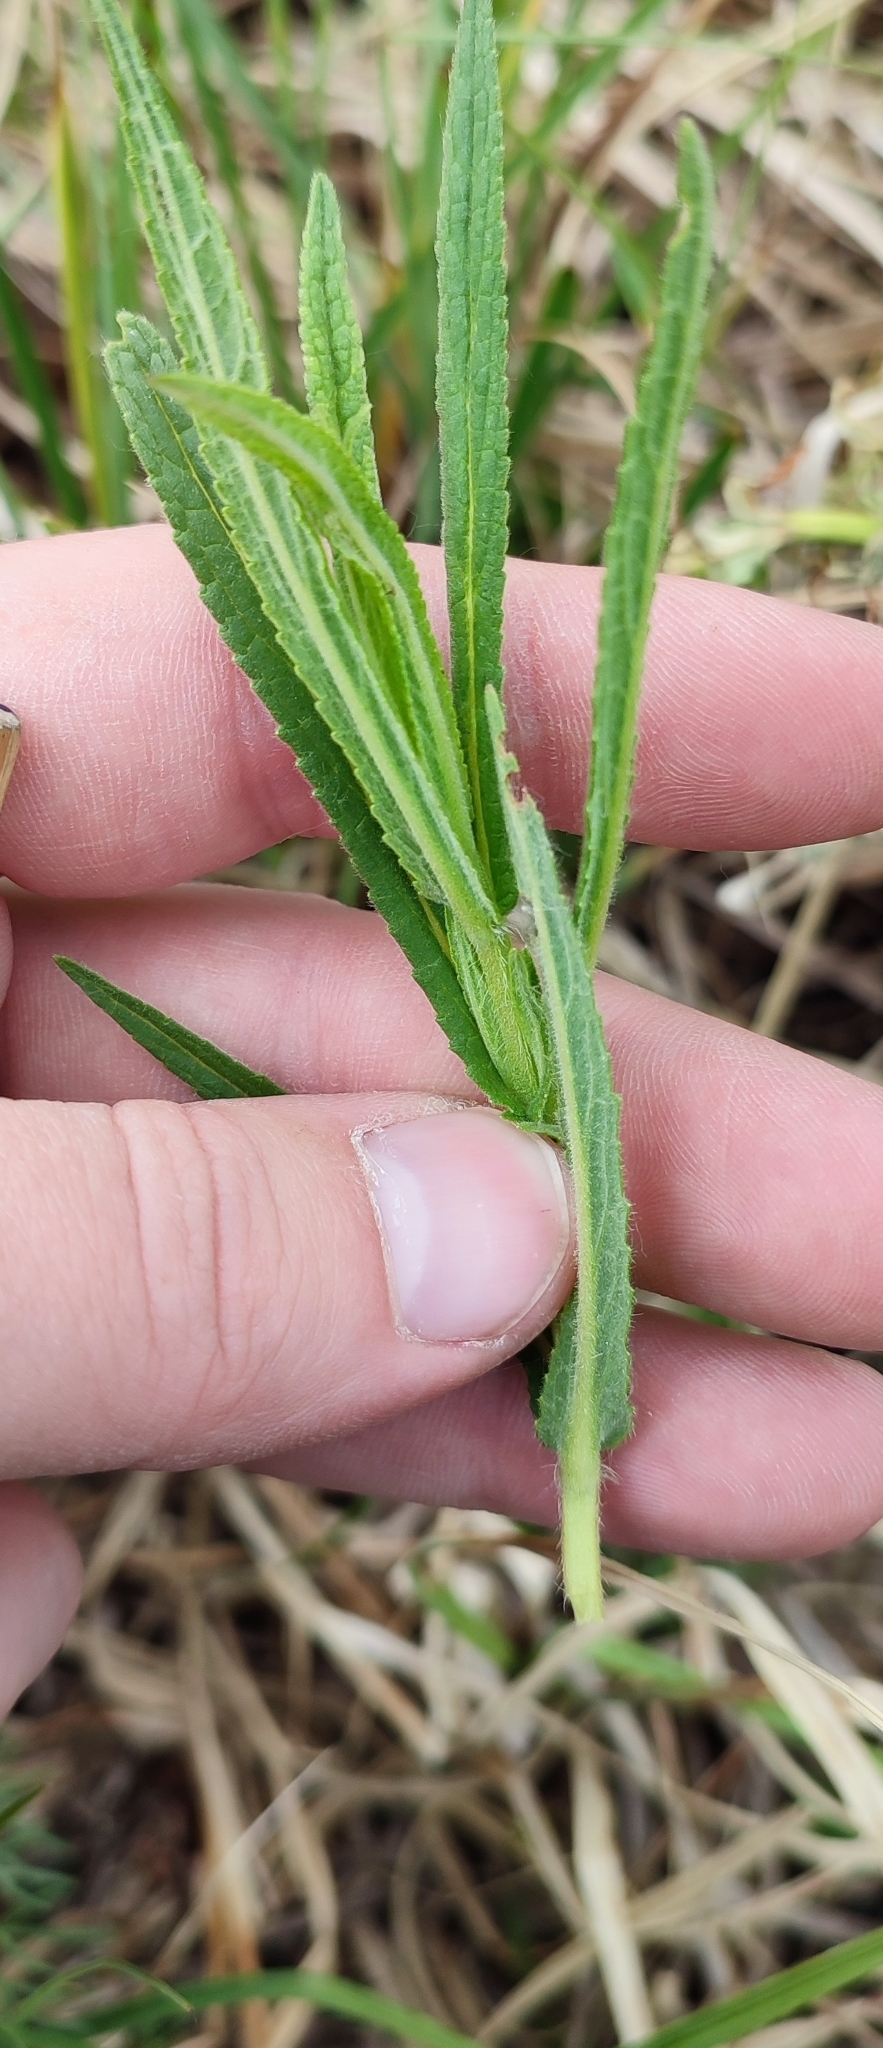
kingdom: Plantae
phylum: Tracheophyta
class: Magnoliopsida
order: Asterales
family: Asteraceae
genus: Achillea
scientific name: Achillea salicifolia
